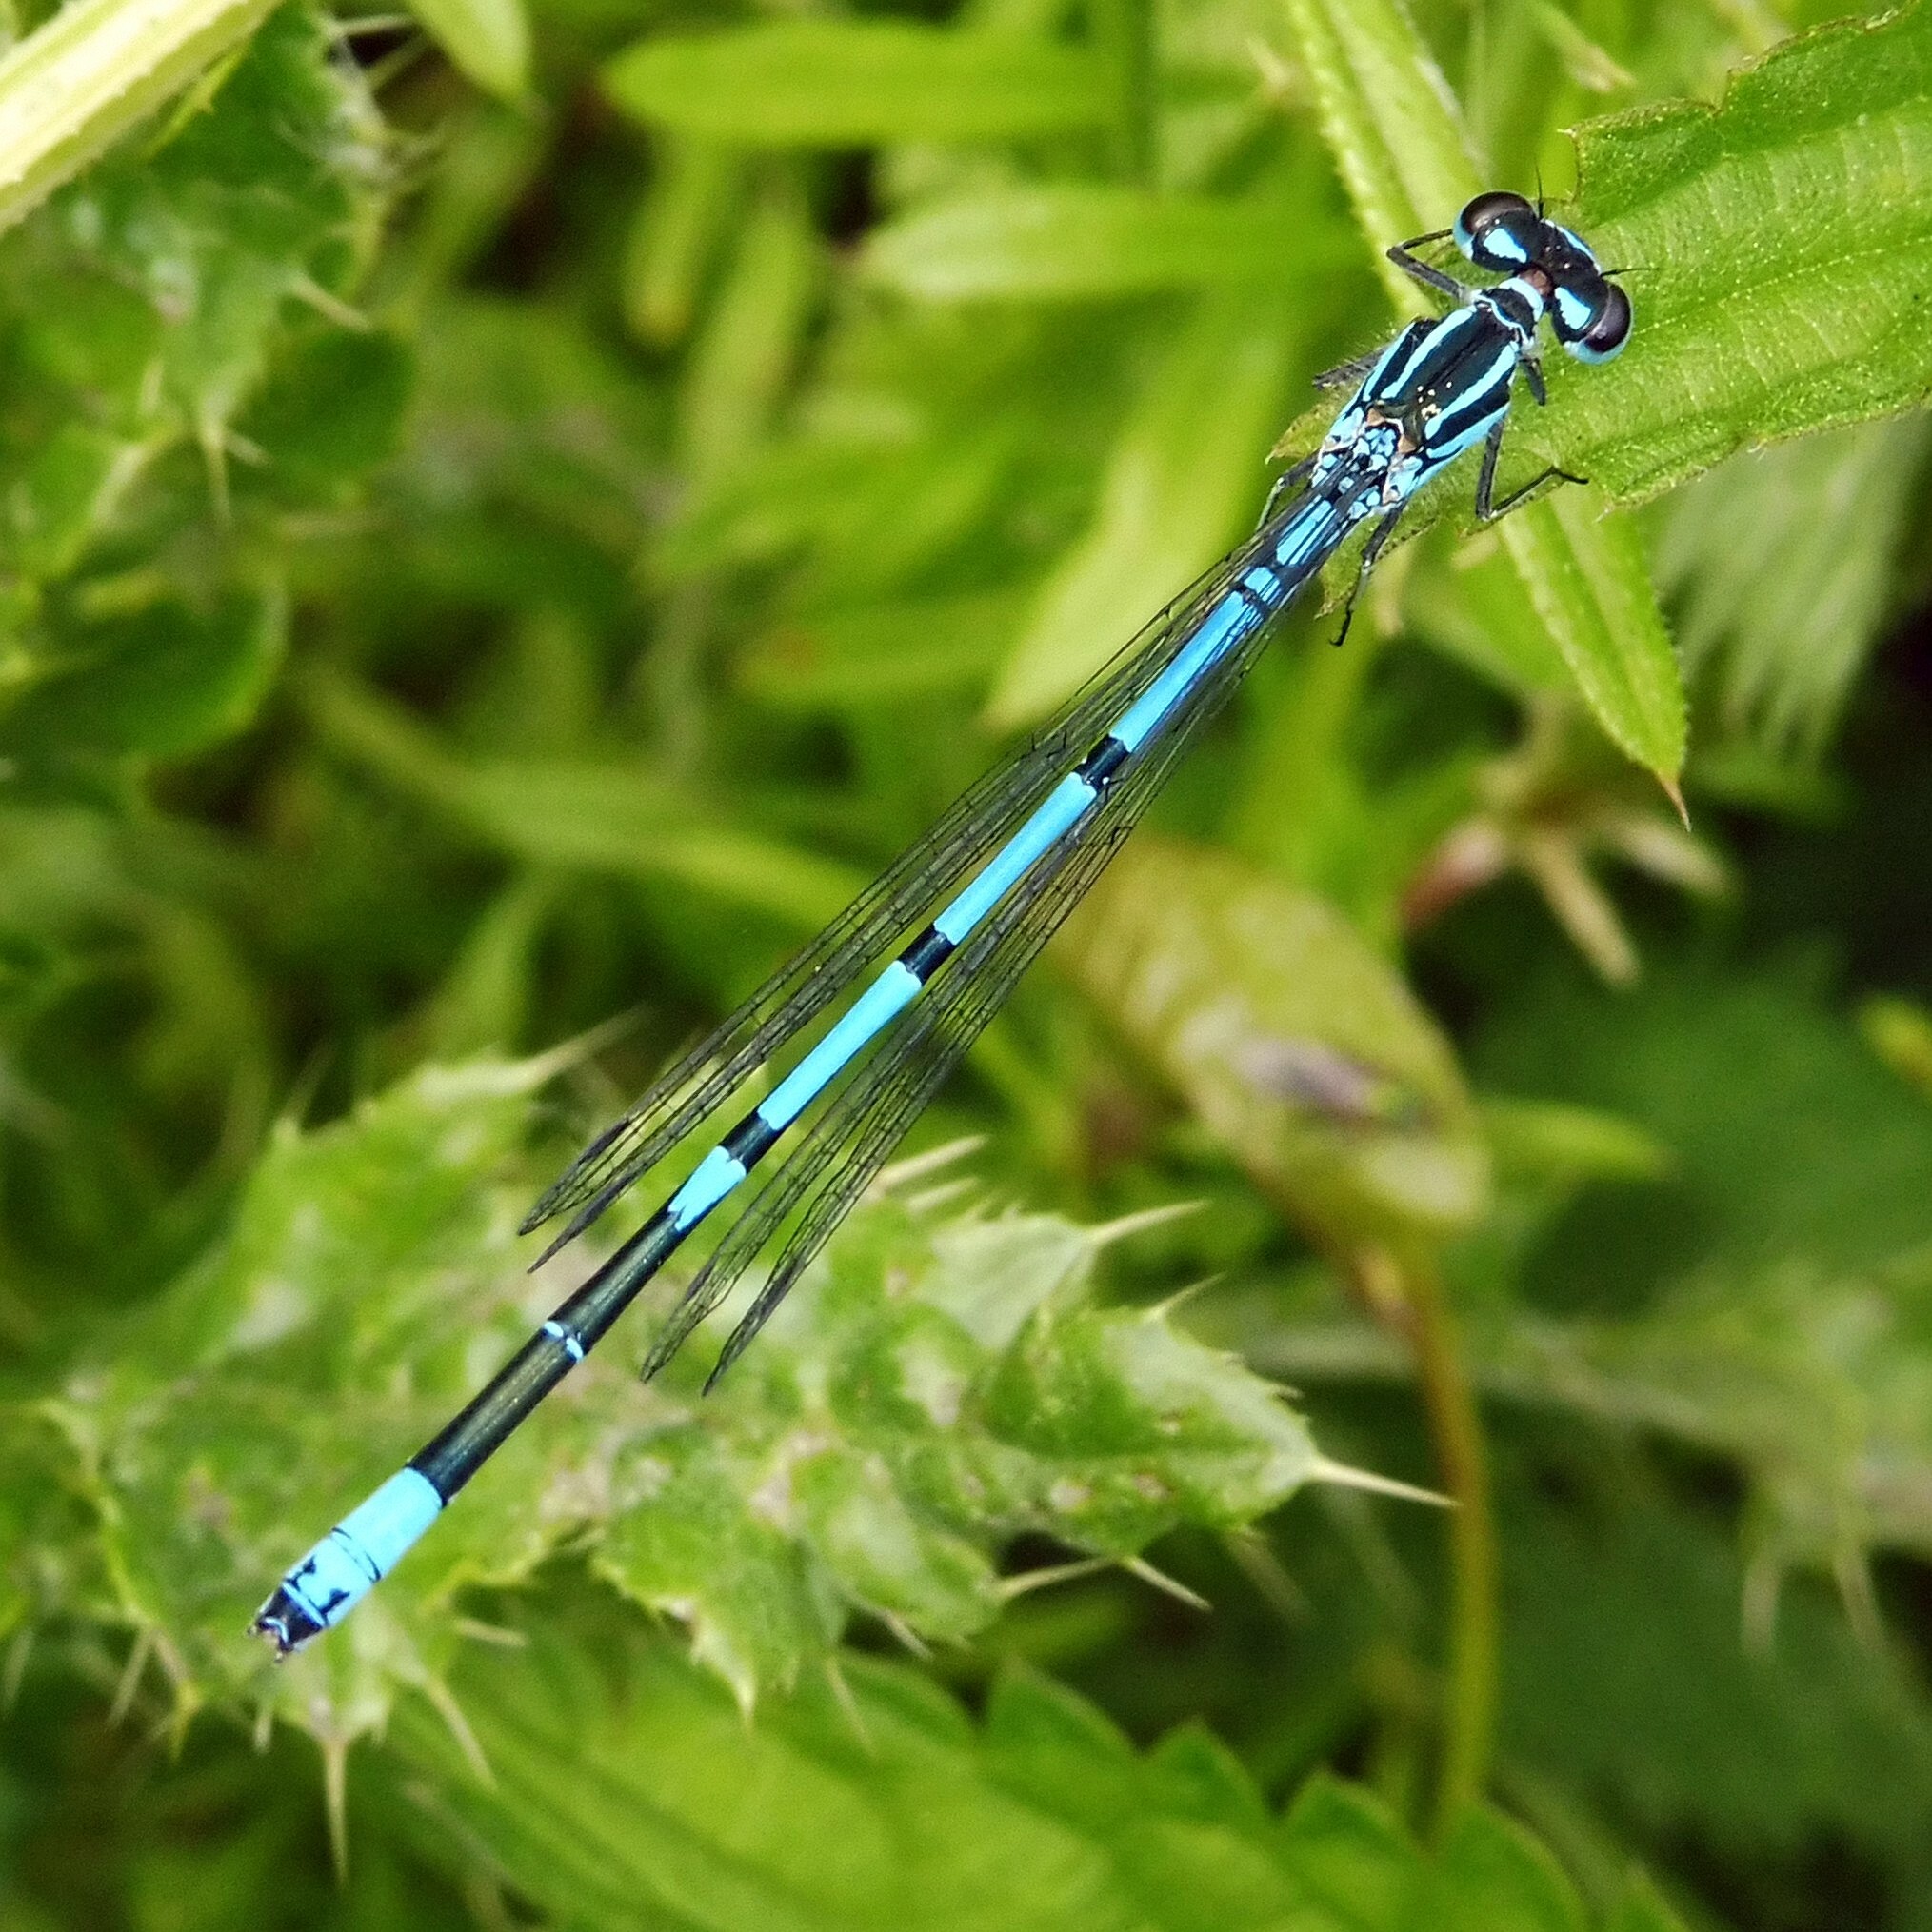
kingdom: Animalia
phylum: Arthropoda
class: Insecta
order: Odonata
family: Coenagrionidae
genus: Coenagrion
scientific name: Coenagrion puella
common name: Azure damselfly
